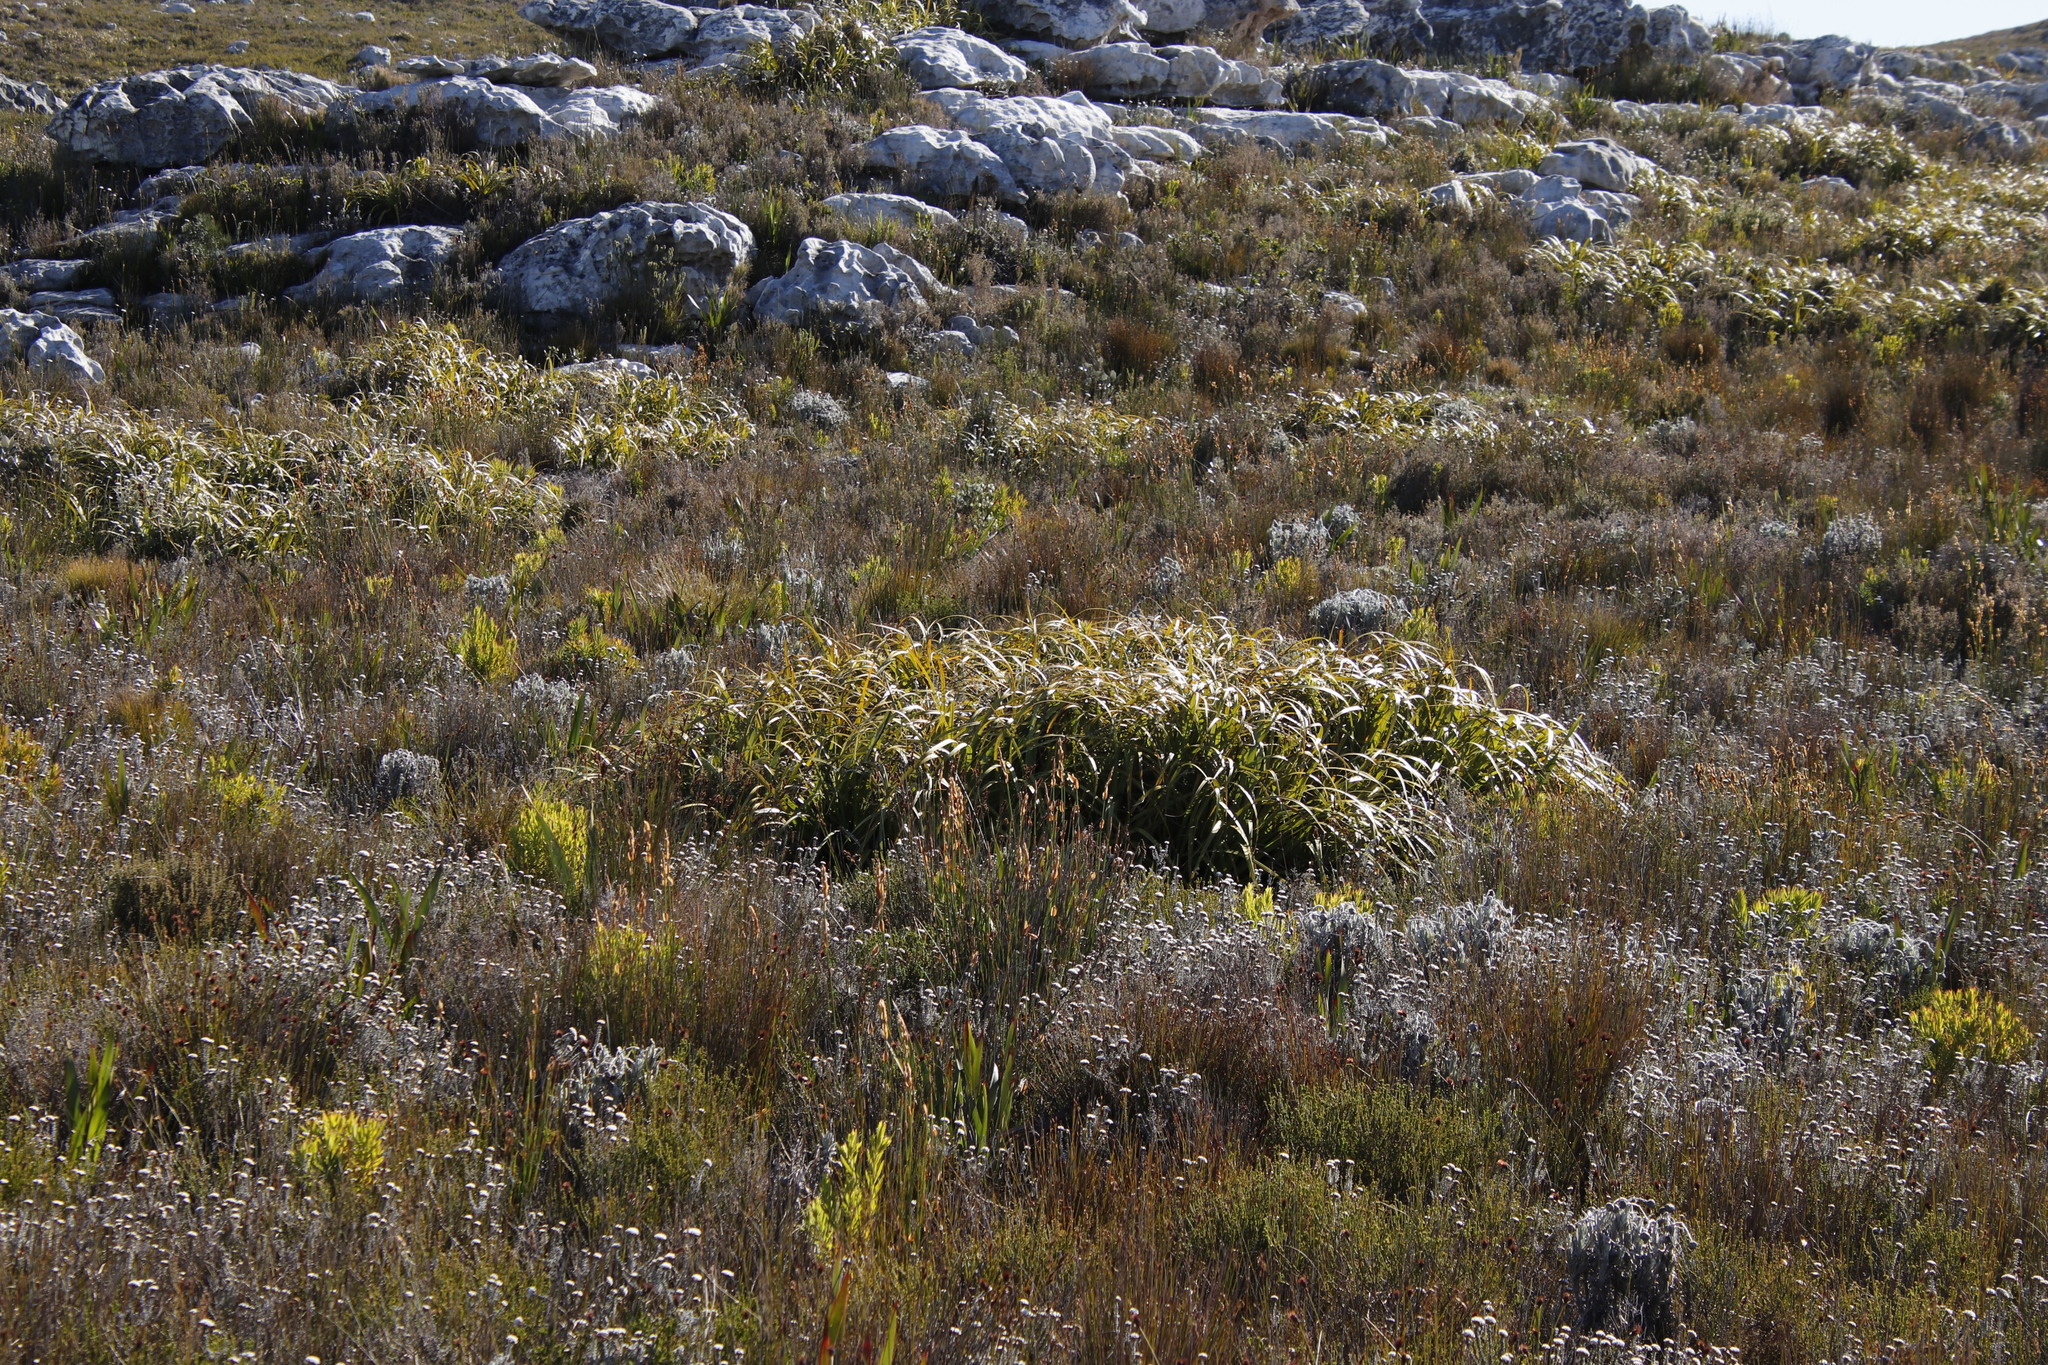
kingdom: Plantae
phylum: Tracheophyta
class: Liliopsida
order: Poales
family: Cyperaceae
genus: Tetraria
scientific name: Tetraria thermalis
